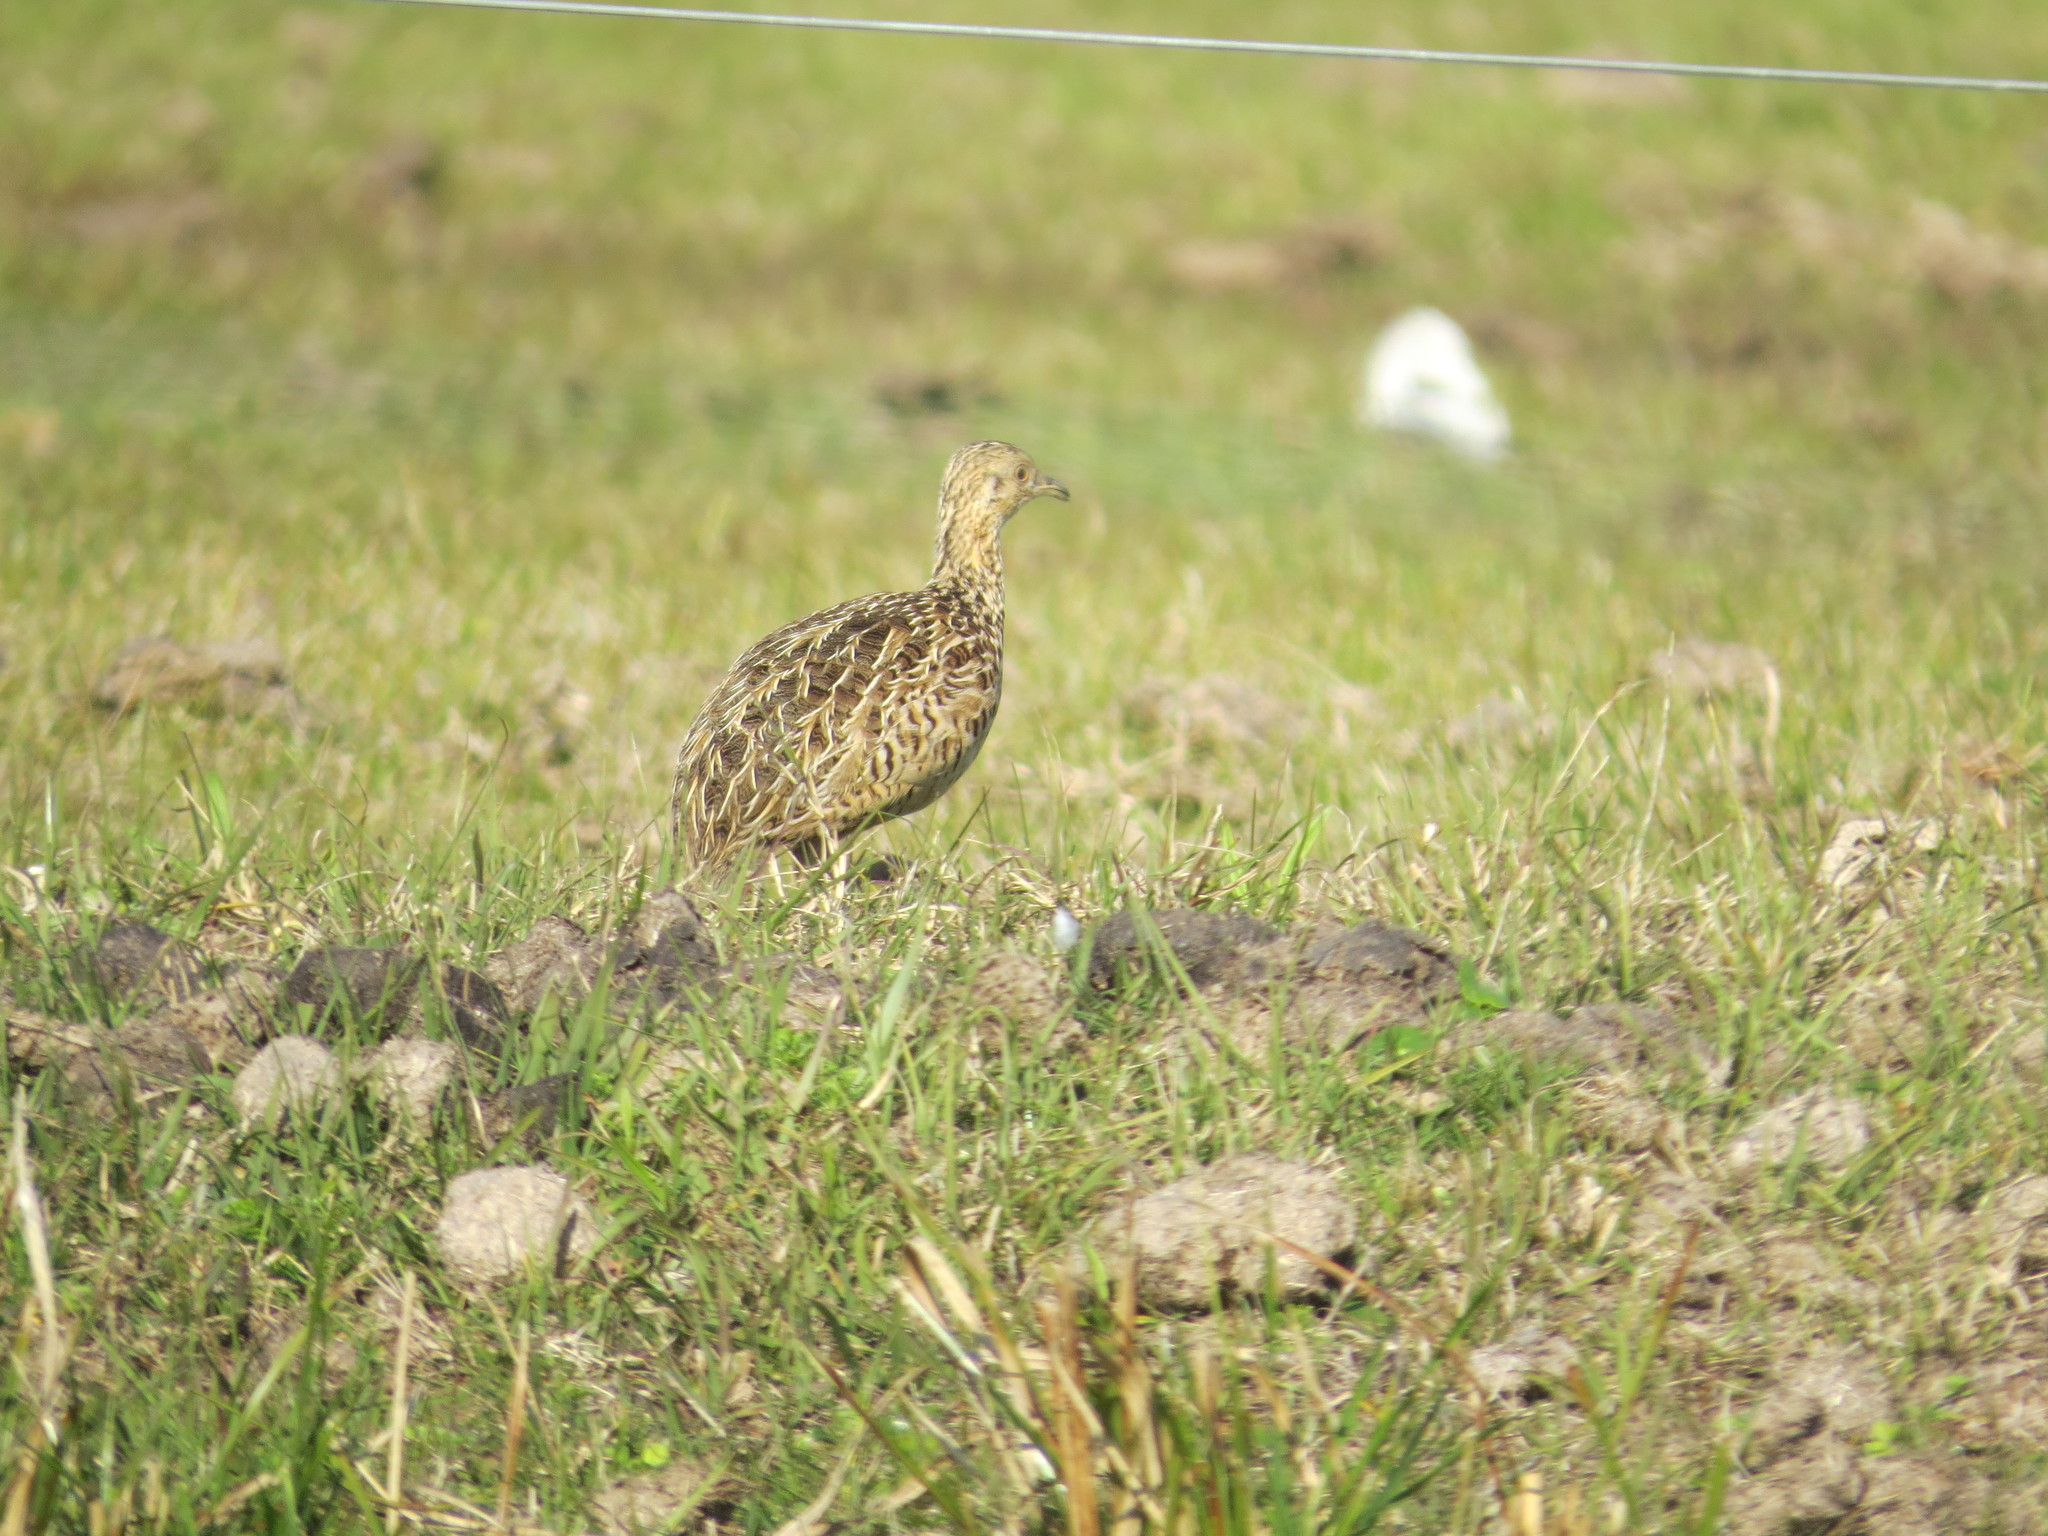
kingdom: Animalia
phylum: Chordata
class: Aves
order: Tinamiformes
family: Tinamidae
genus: Nothura
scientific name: Nothura maculosa
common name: Spotted nothura
